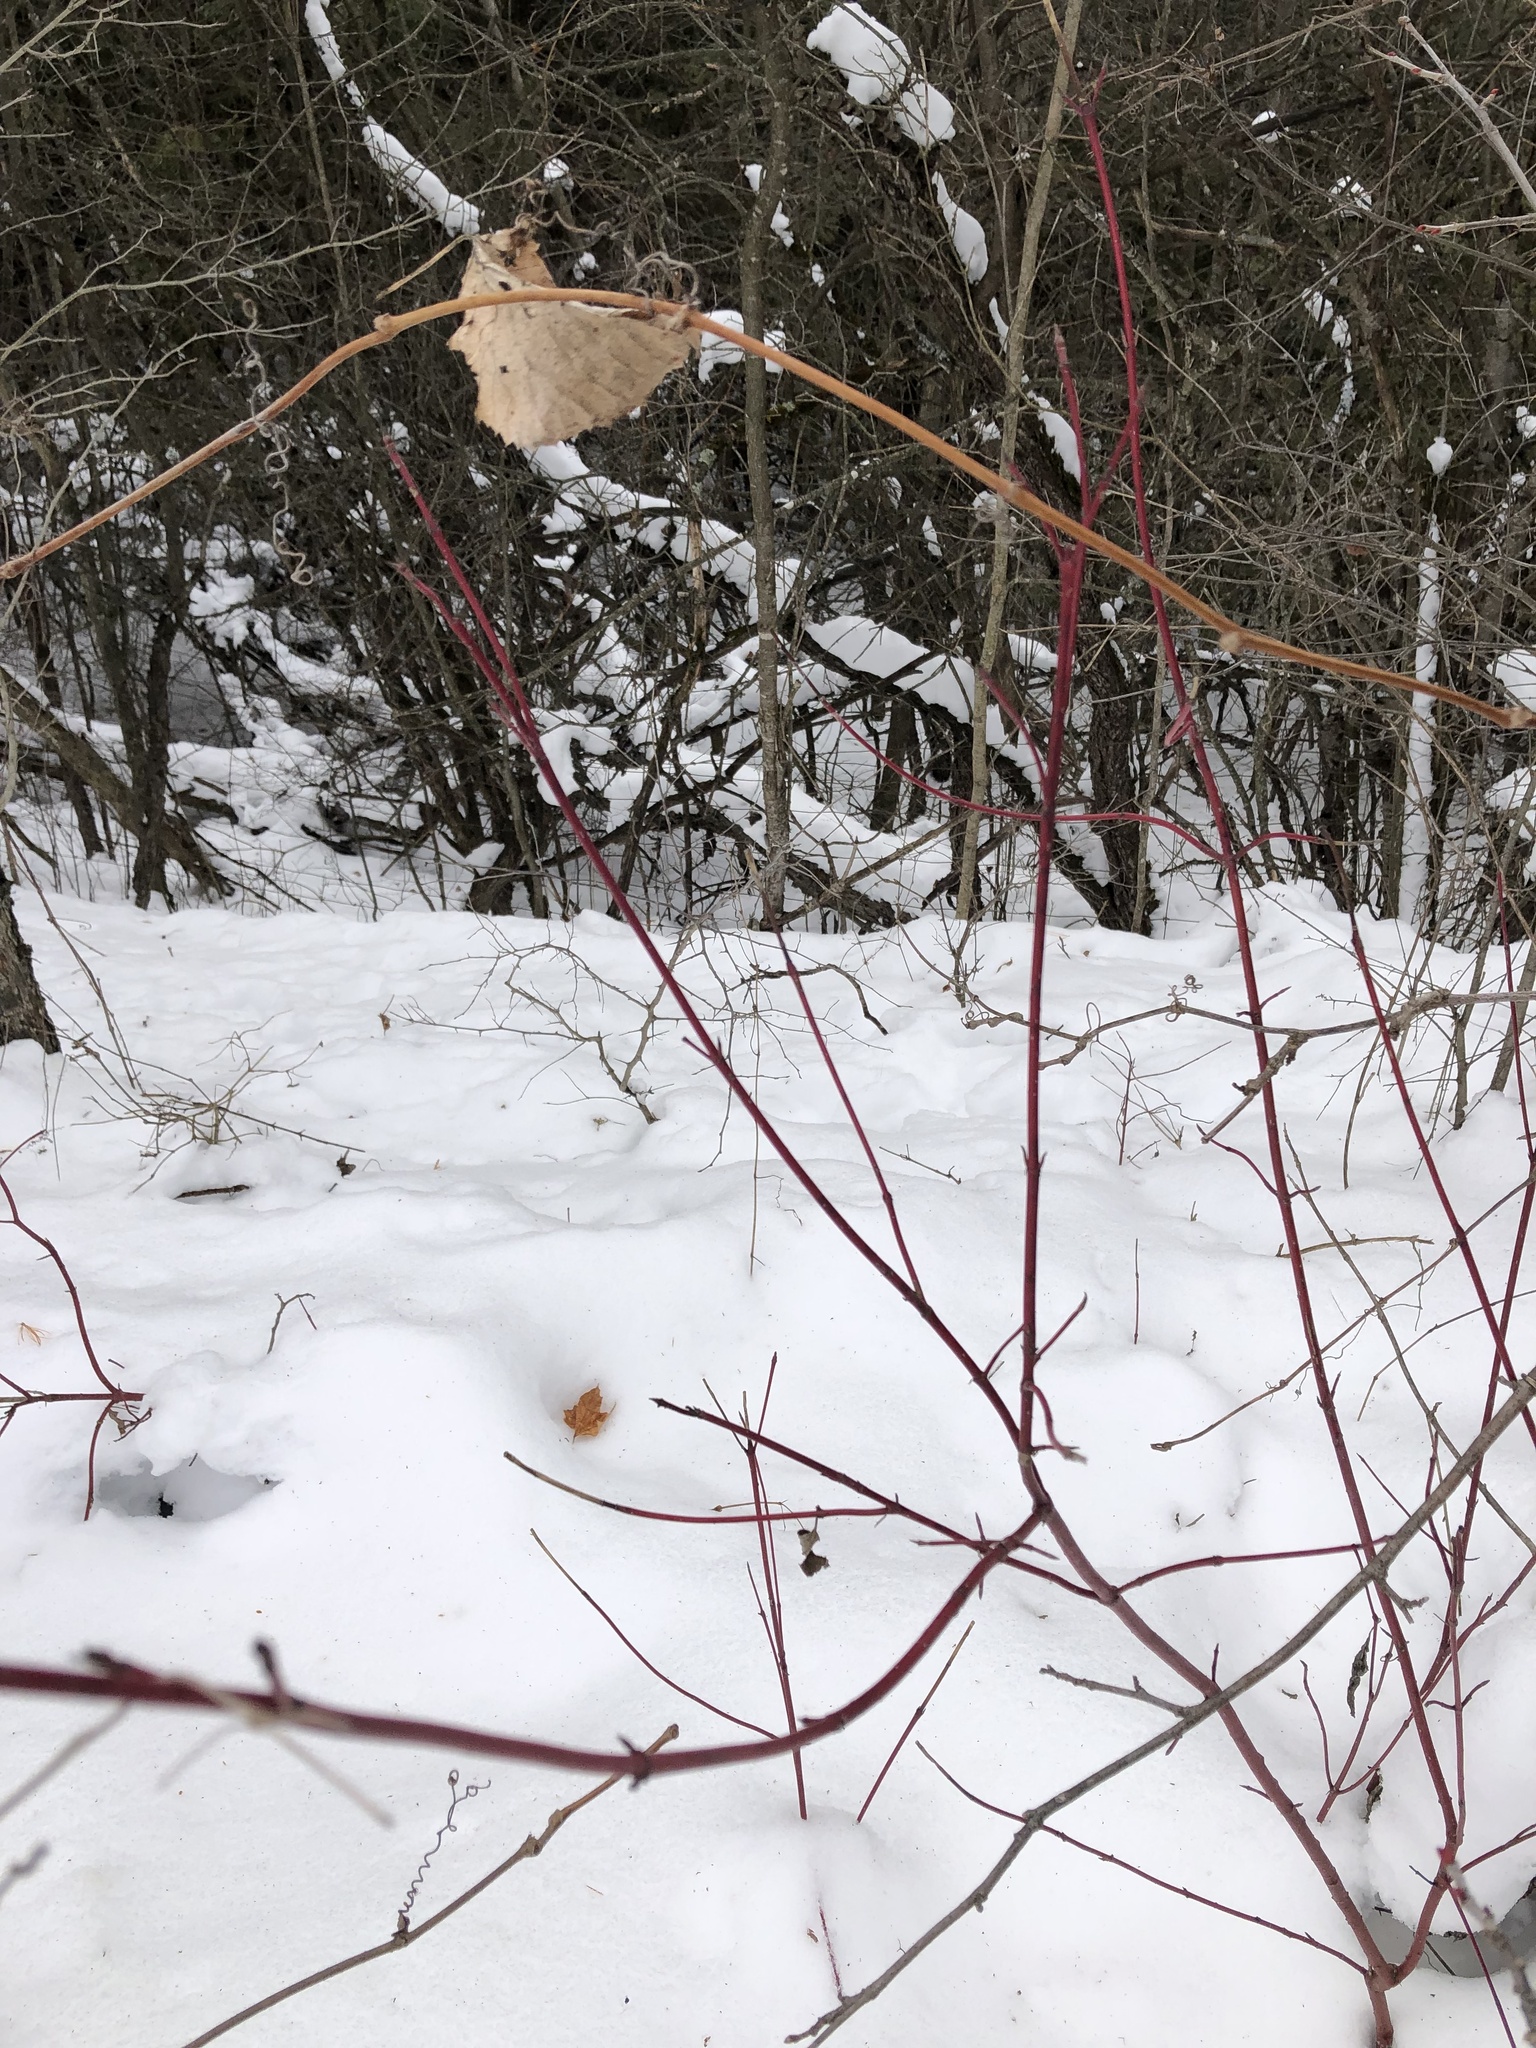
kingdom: Plantae
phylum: Tracheophyta
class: Magnoliopsida
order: Cornales
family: Cornaceae
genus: Cornus
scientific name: Cornus sericea
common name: Red-osier dogwood
